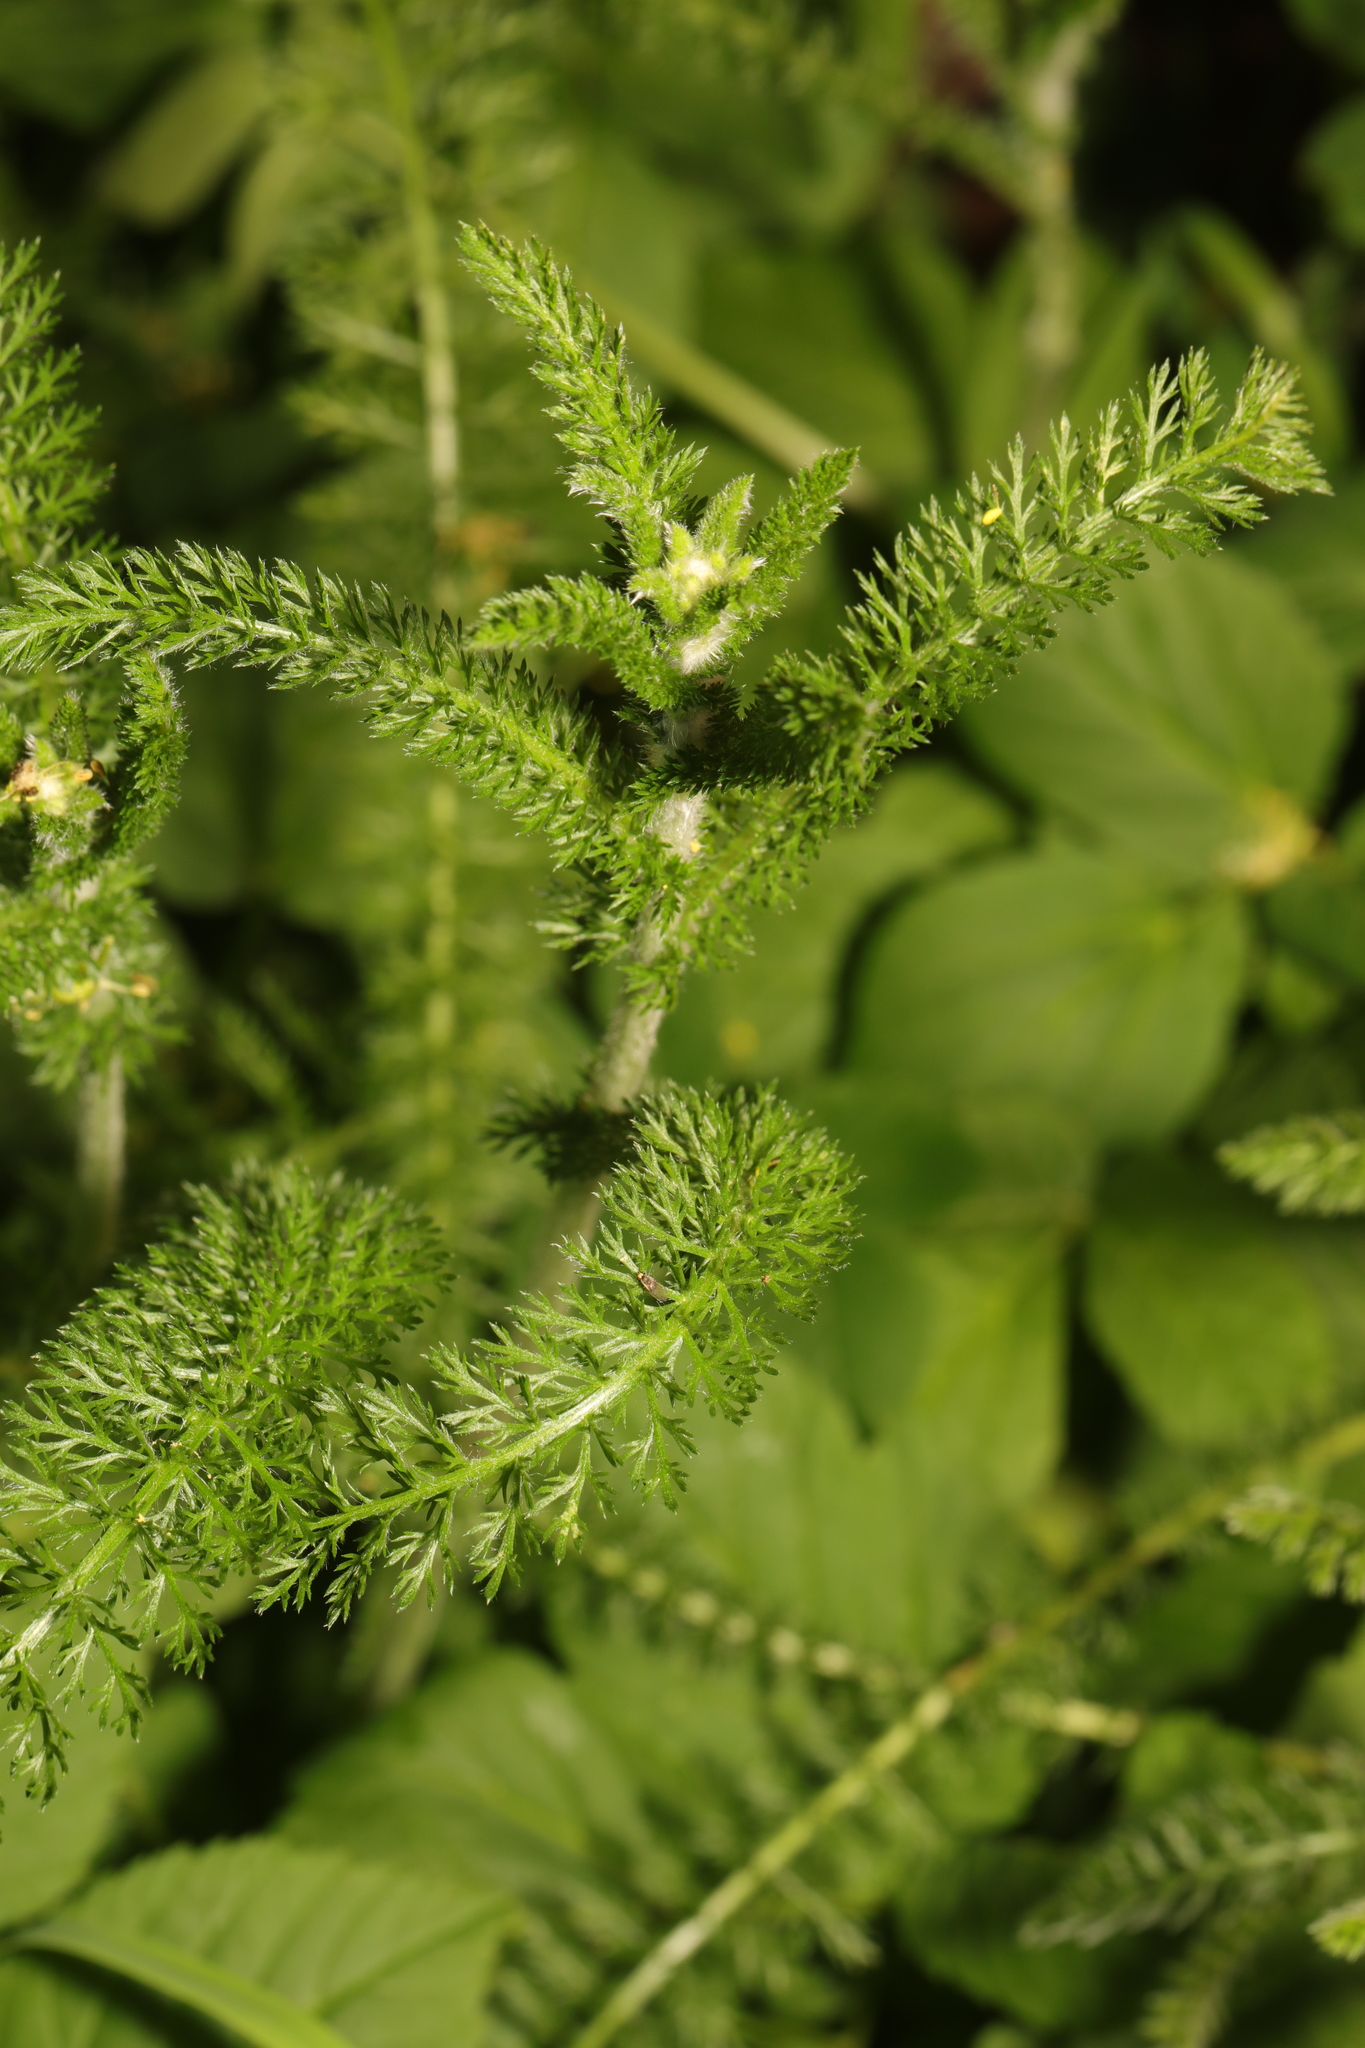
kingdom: Plantae
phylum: Tracheophyta
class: Magnoliopsida
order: Asterales
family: Asteraceae
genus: Achillea
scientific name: Achillea millefolium
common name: Yarrow
